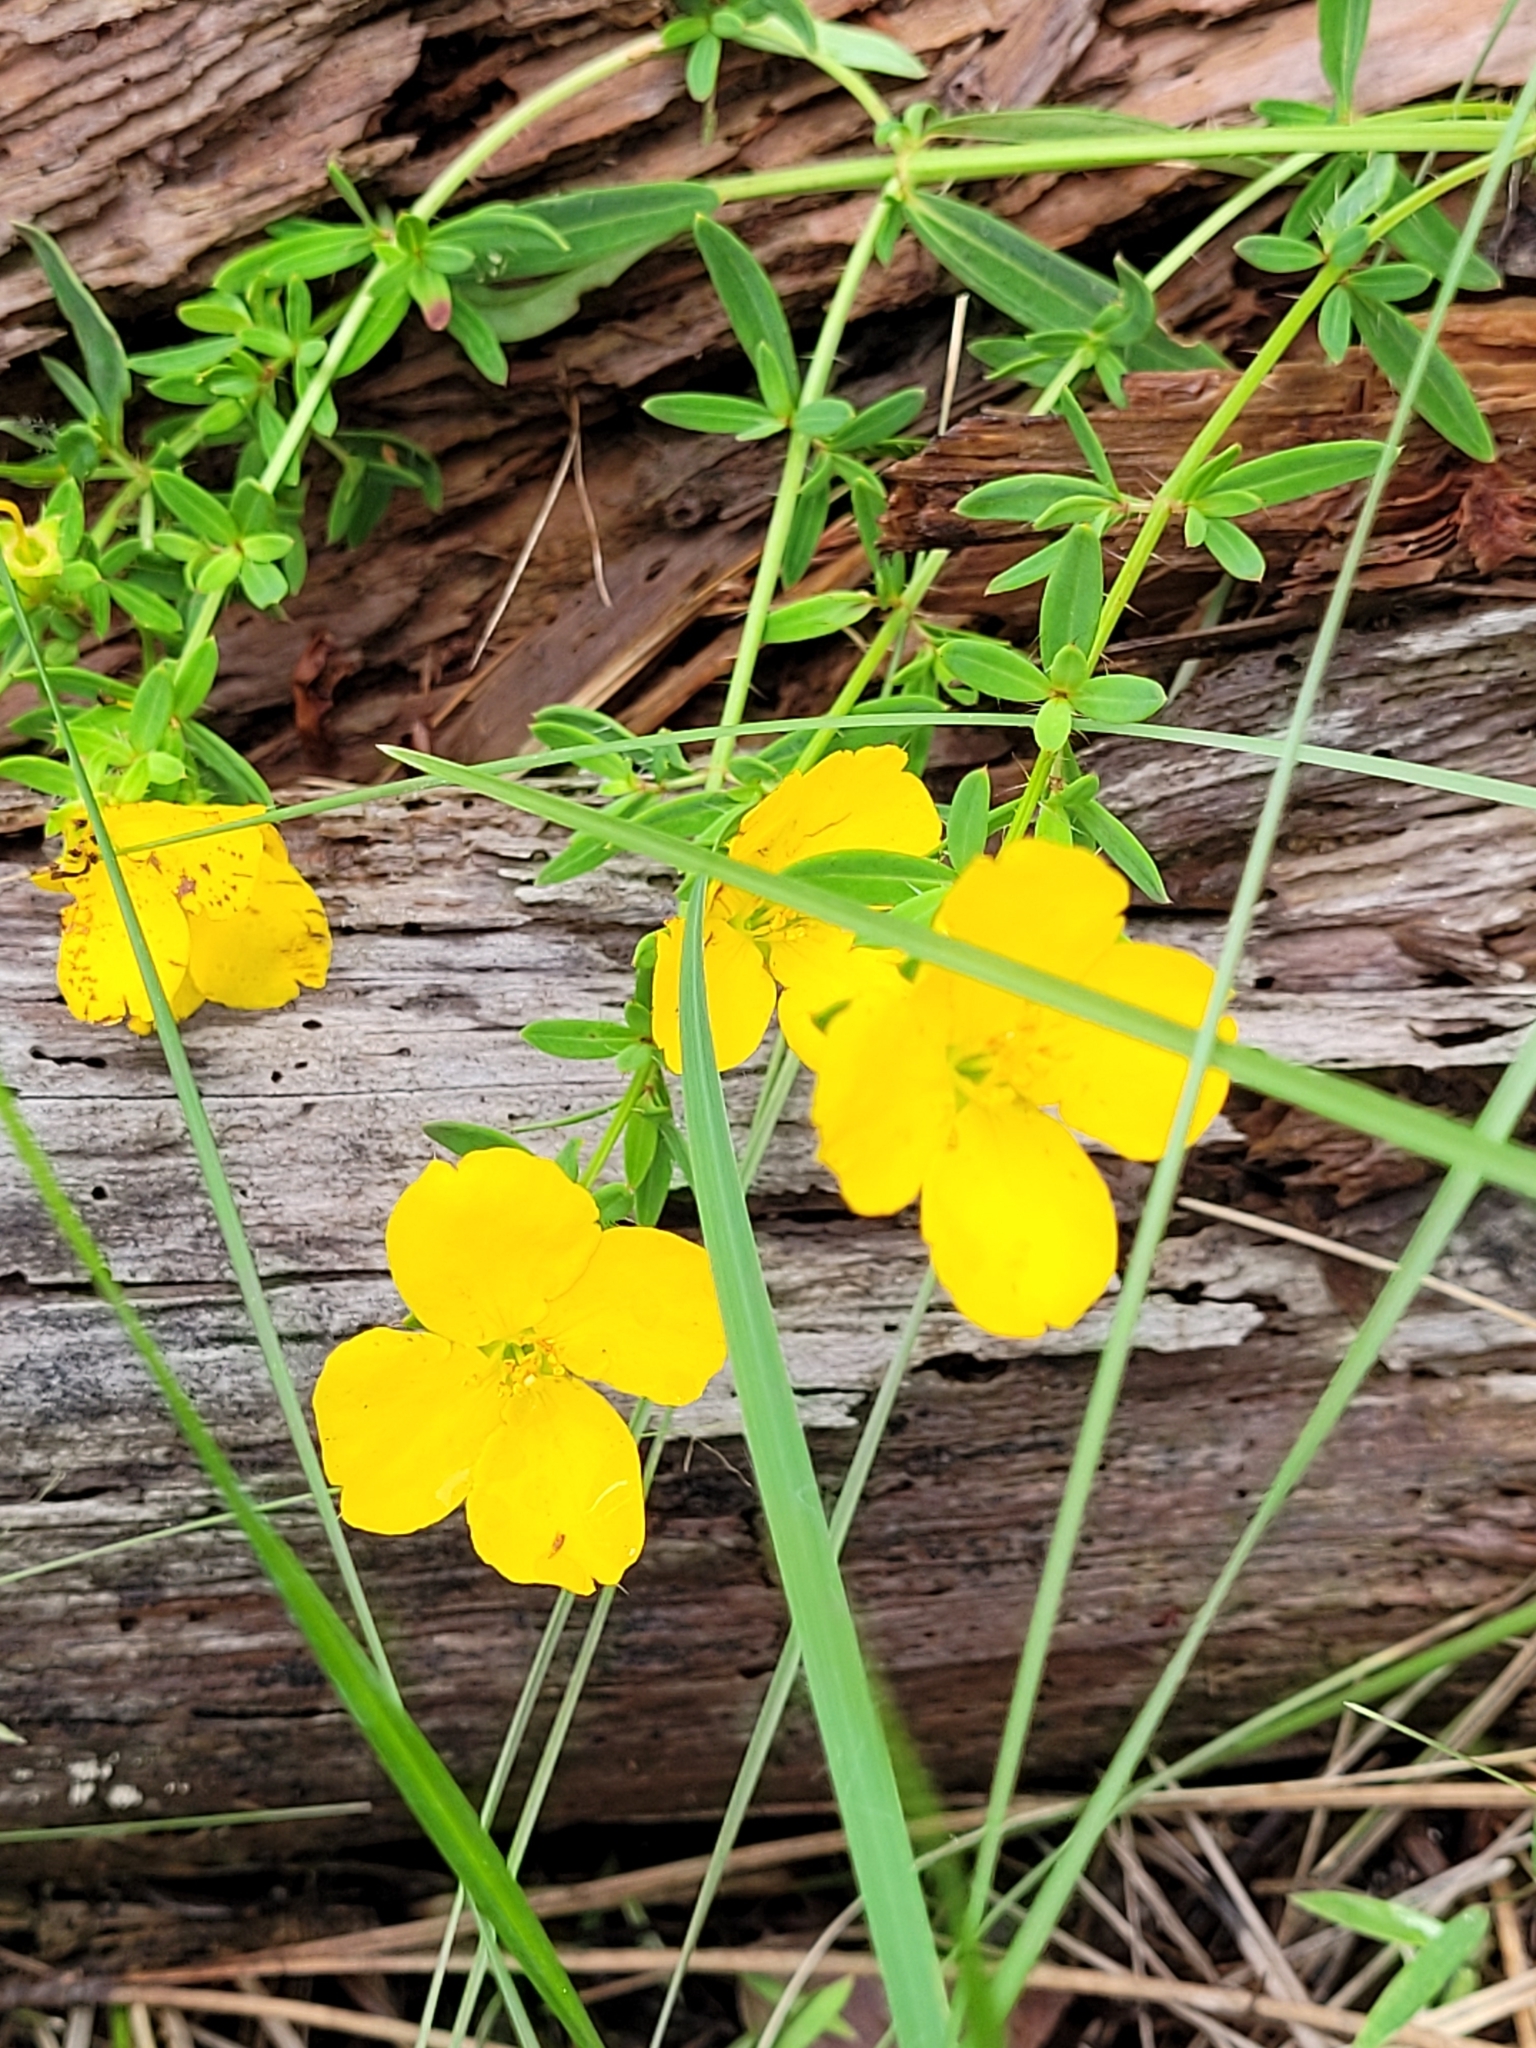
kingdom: Plantae
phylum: Tracheophyta
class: Magnoliopsida
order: Myrtales
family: Melastomataceae
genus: Rhexia
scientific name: Rhexia lutea
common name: Golden meadow-beauty
